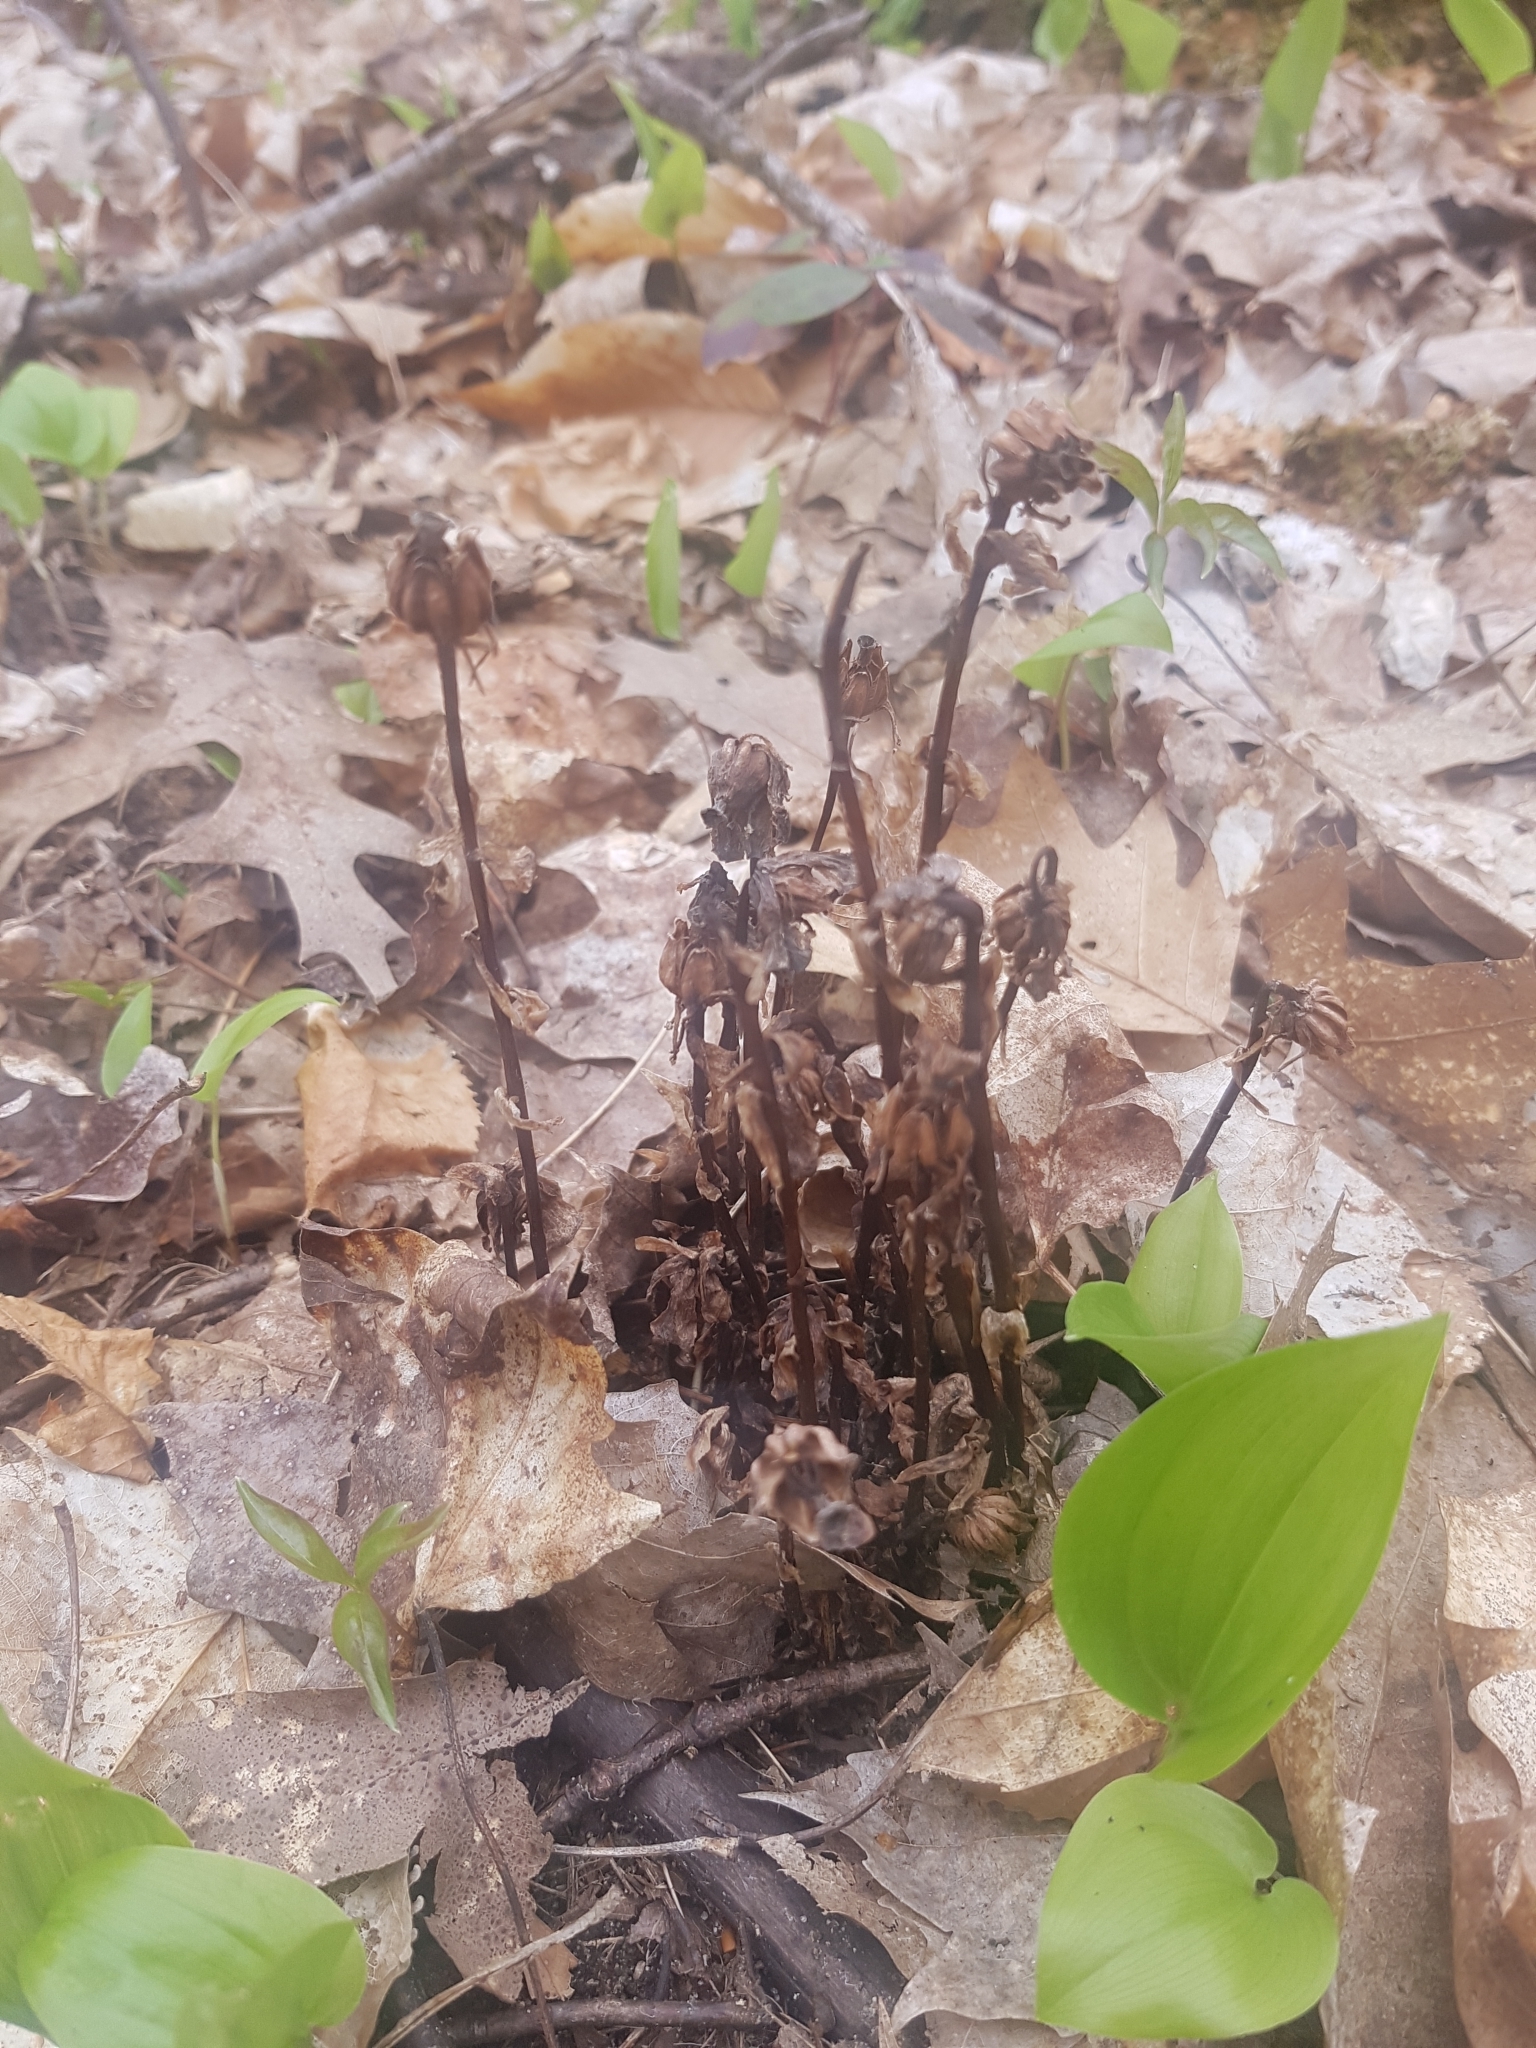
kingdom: Plantae
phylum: Tracheophyta
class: Magnoliopsida
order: Ericales
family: Ericaceae
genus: Monotropa
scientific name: Monotropa uniflora
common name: Convulsion root
